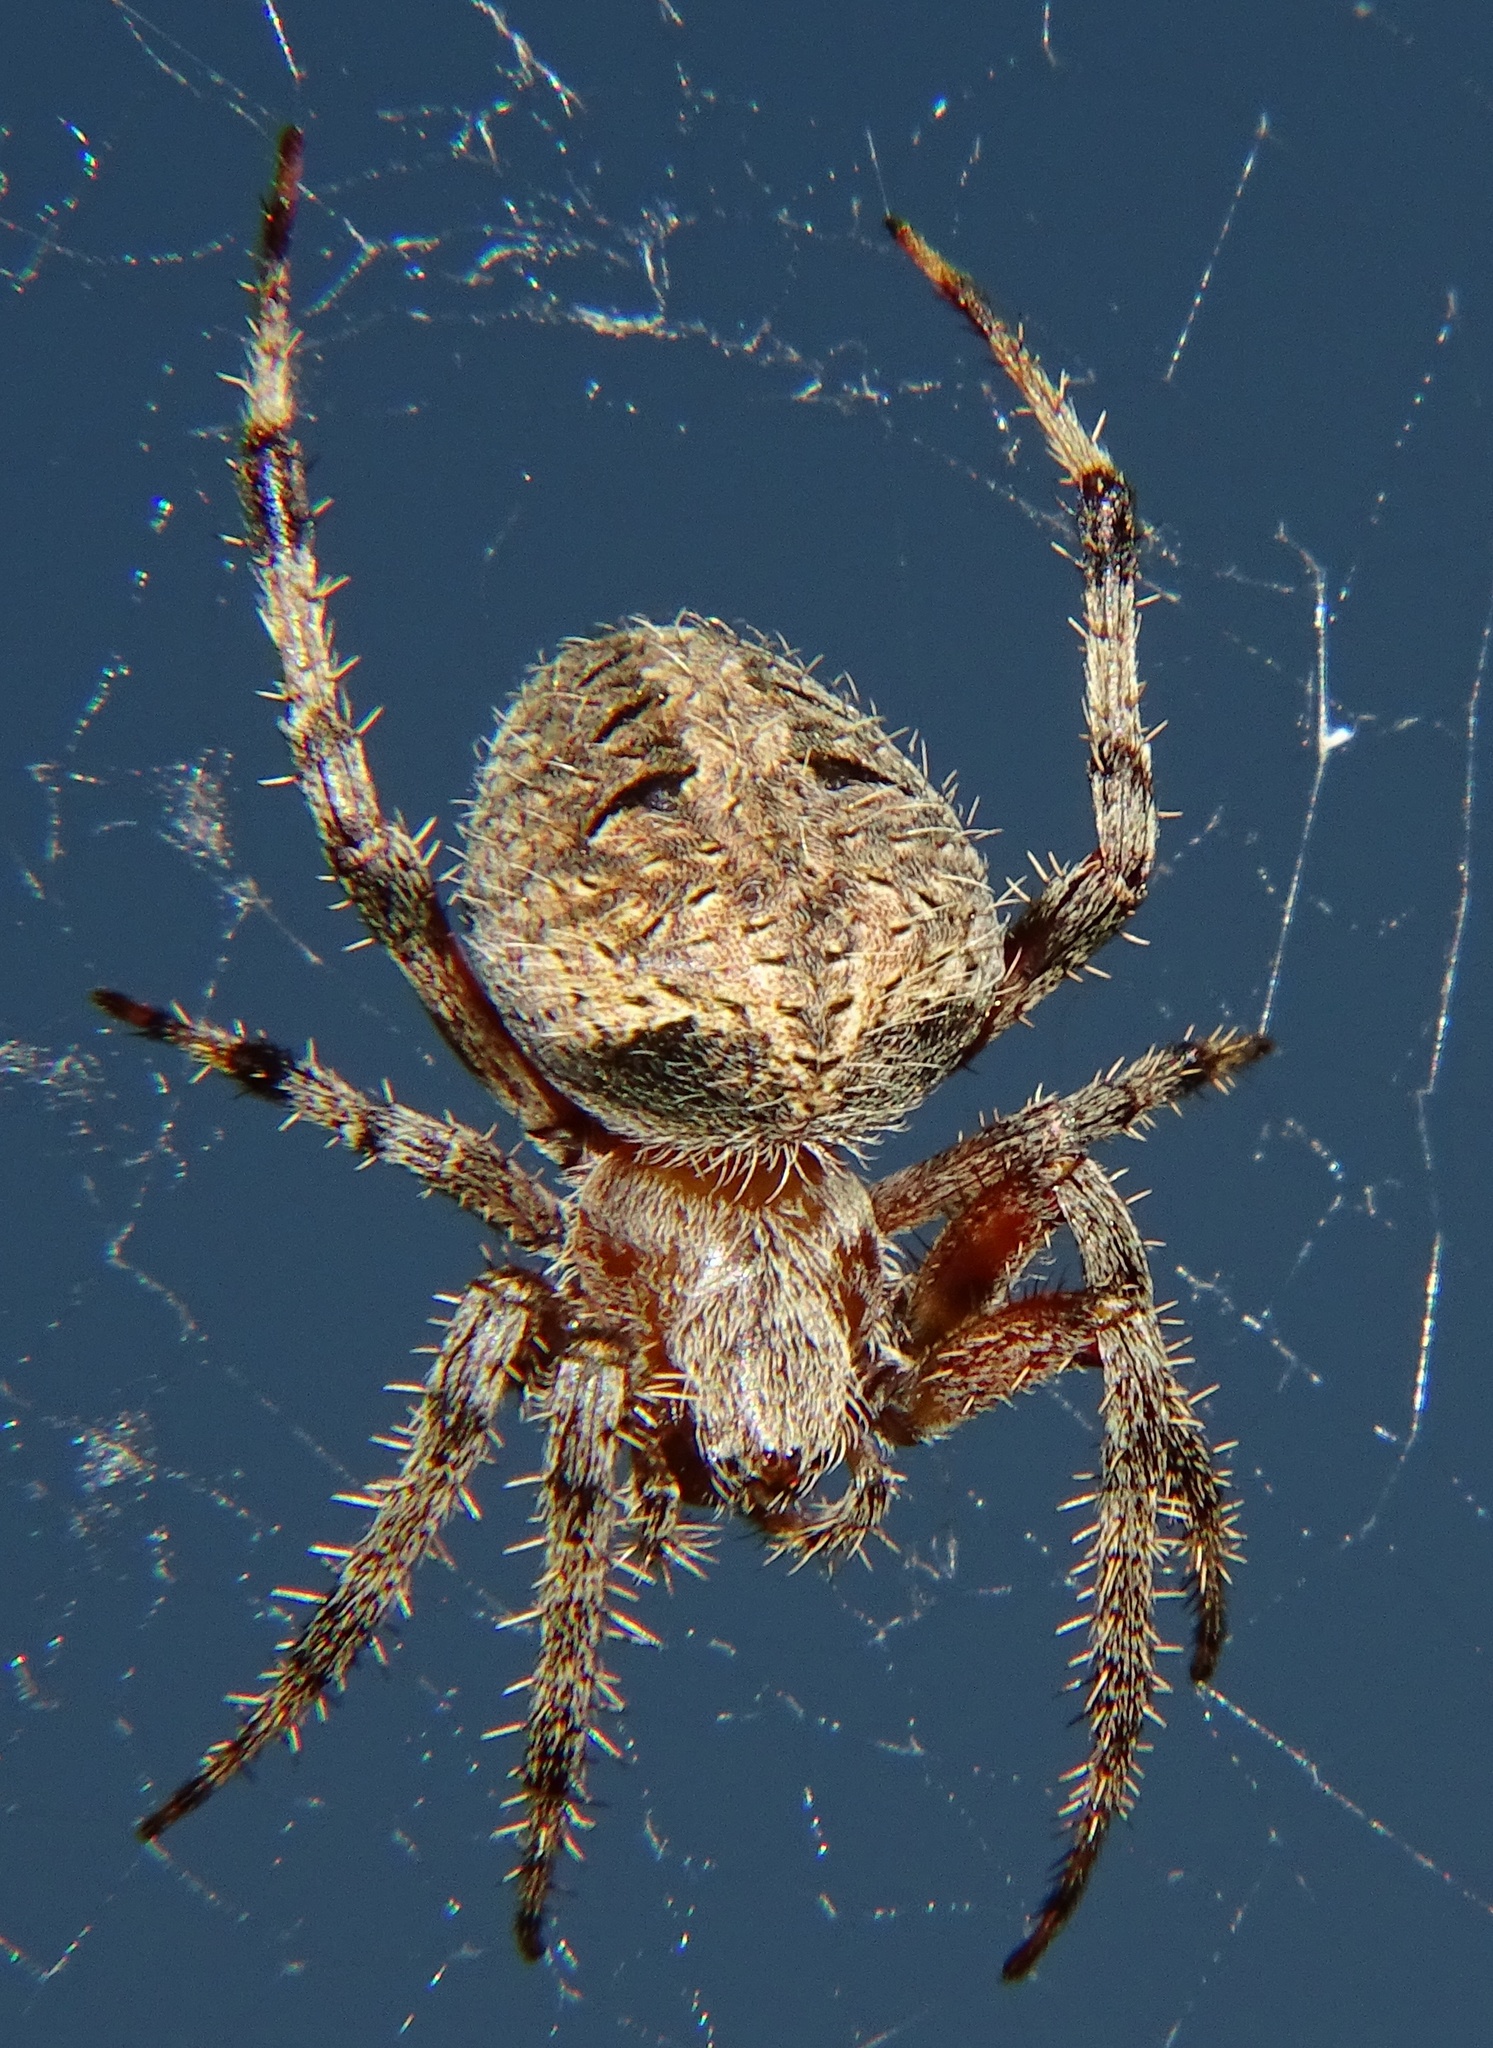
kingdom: Animalia
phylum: Arthropoda
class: Arachnida
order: Araneae
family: Araneidae
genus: Neoscona
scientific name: Neoscona crucifera
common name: Spotted orbweaver
